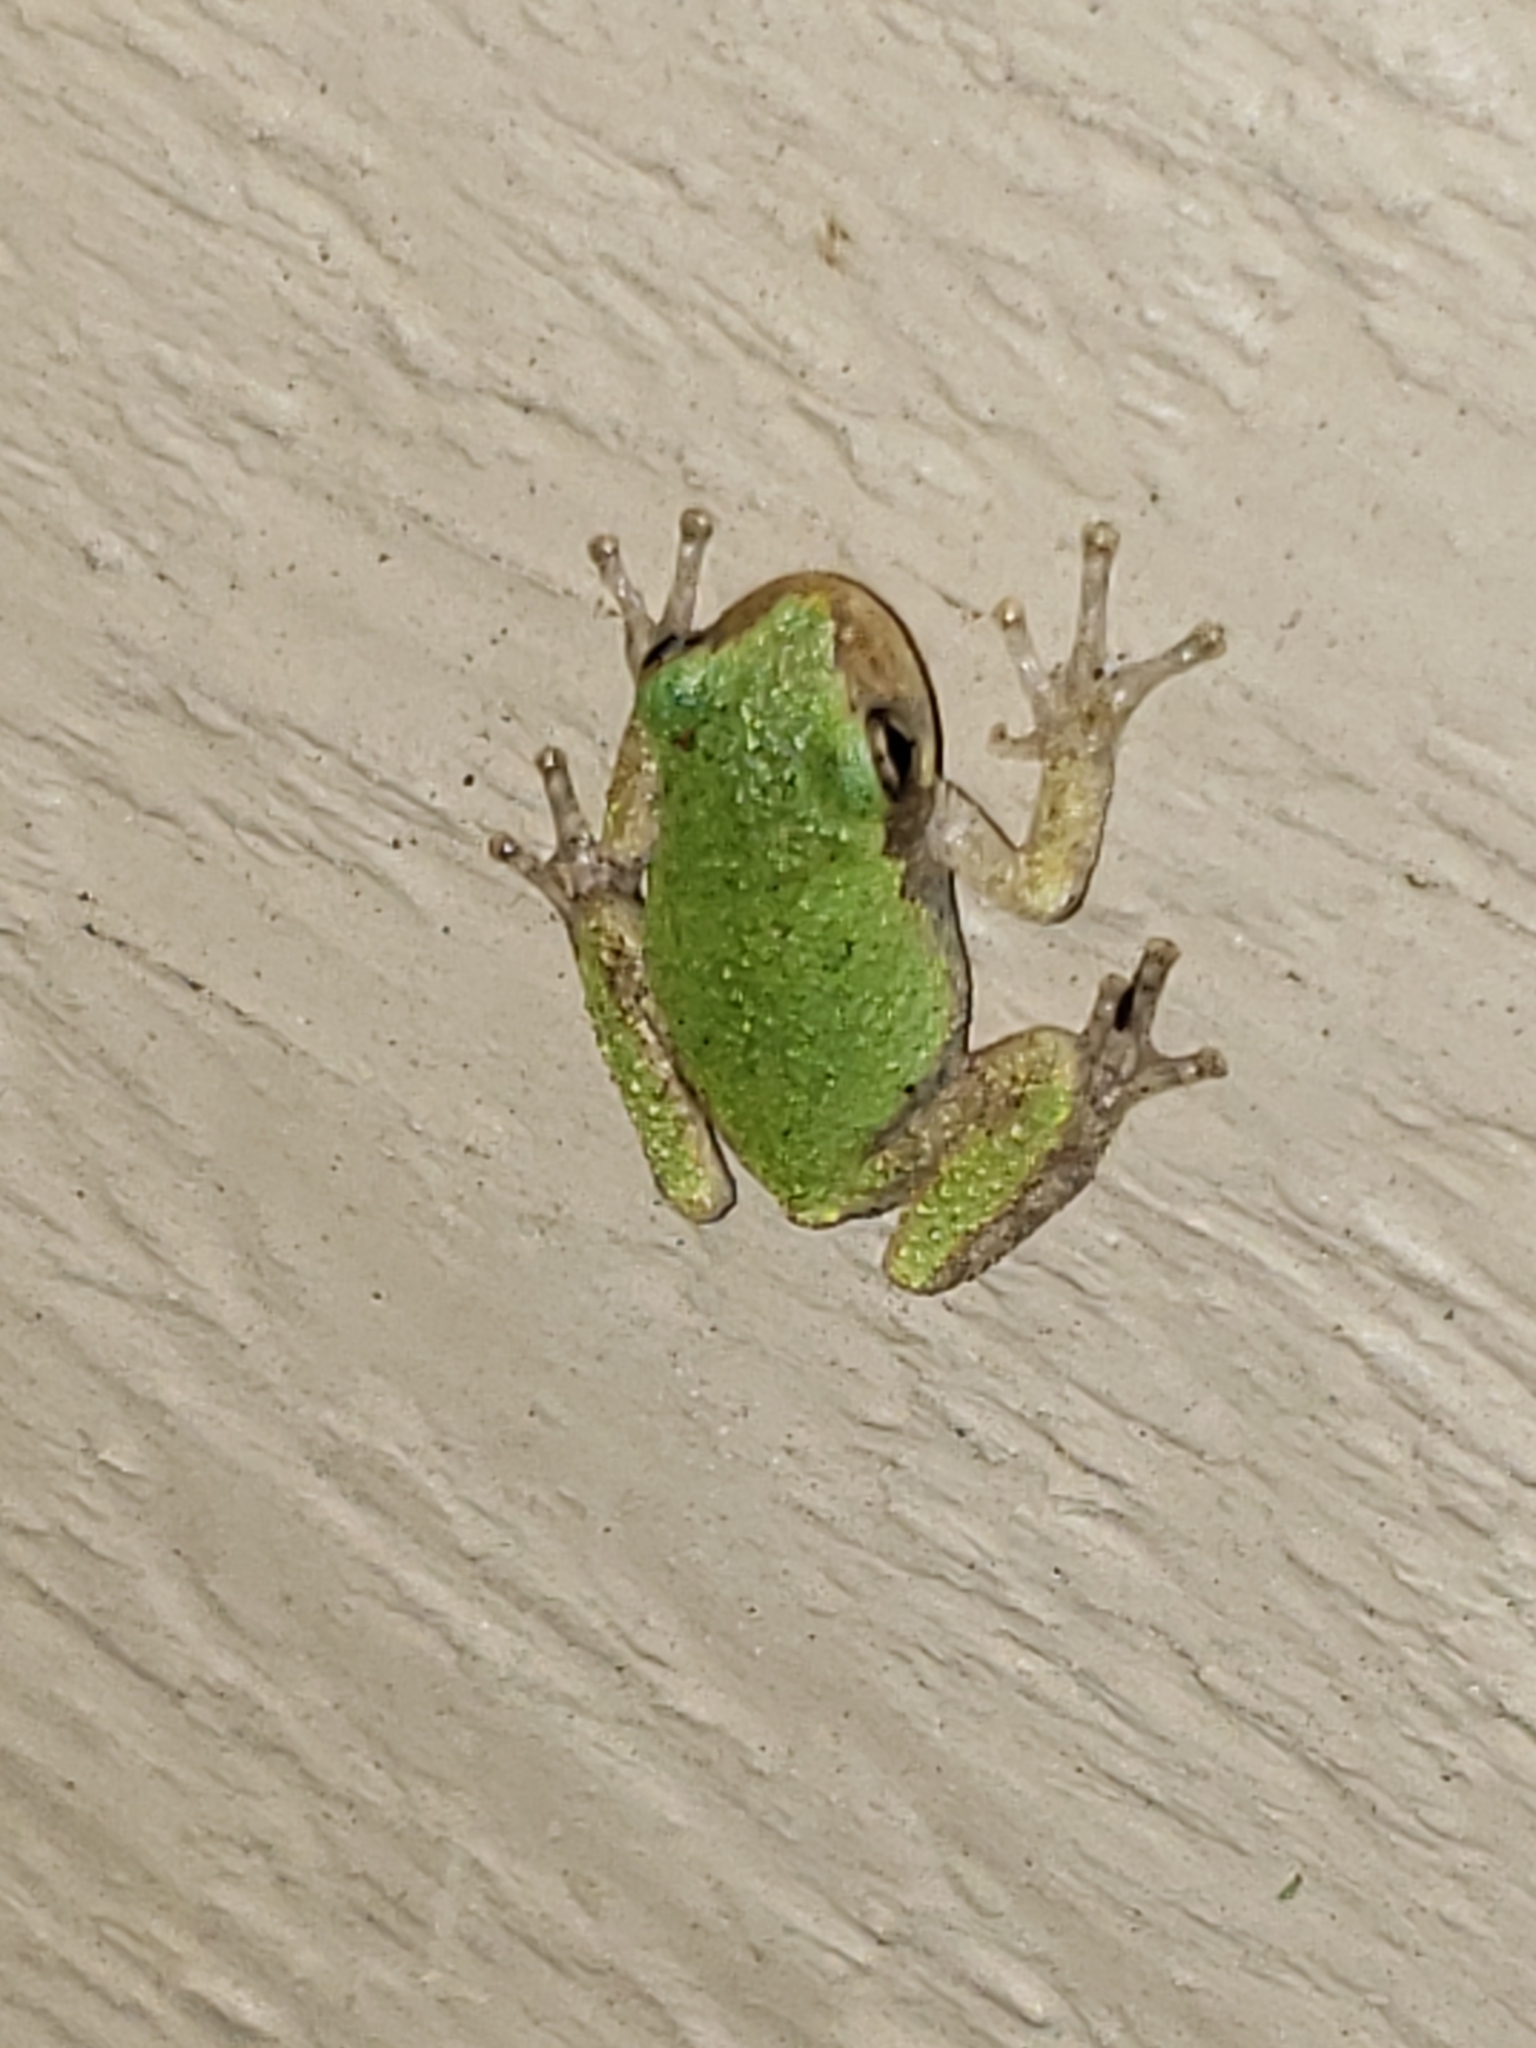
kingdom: Animalia
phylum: Chordata
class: Amphibia
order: Anura
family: Hylidae
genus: Hyla
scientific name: Hyla
